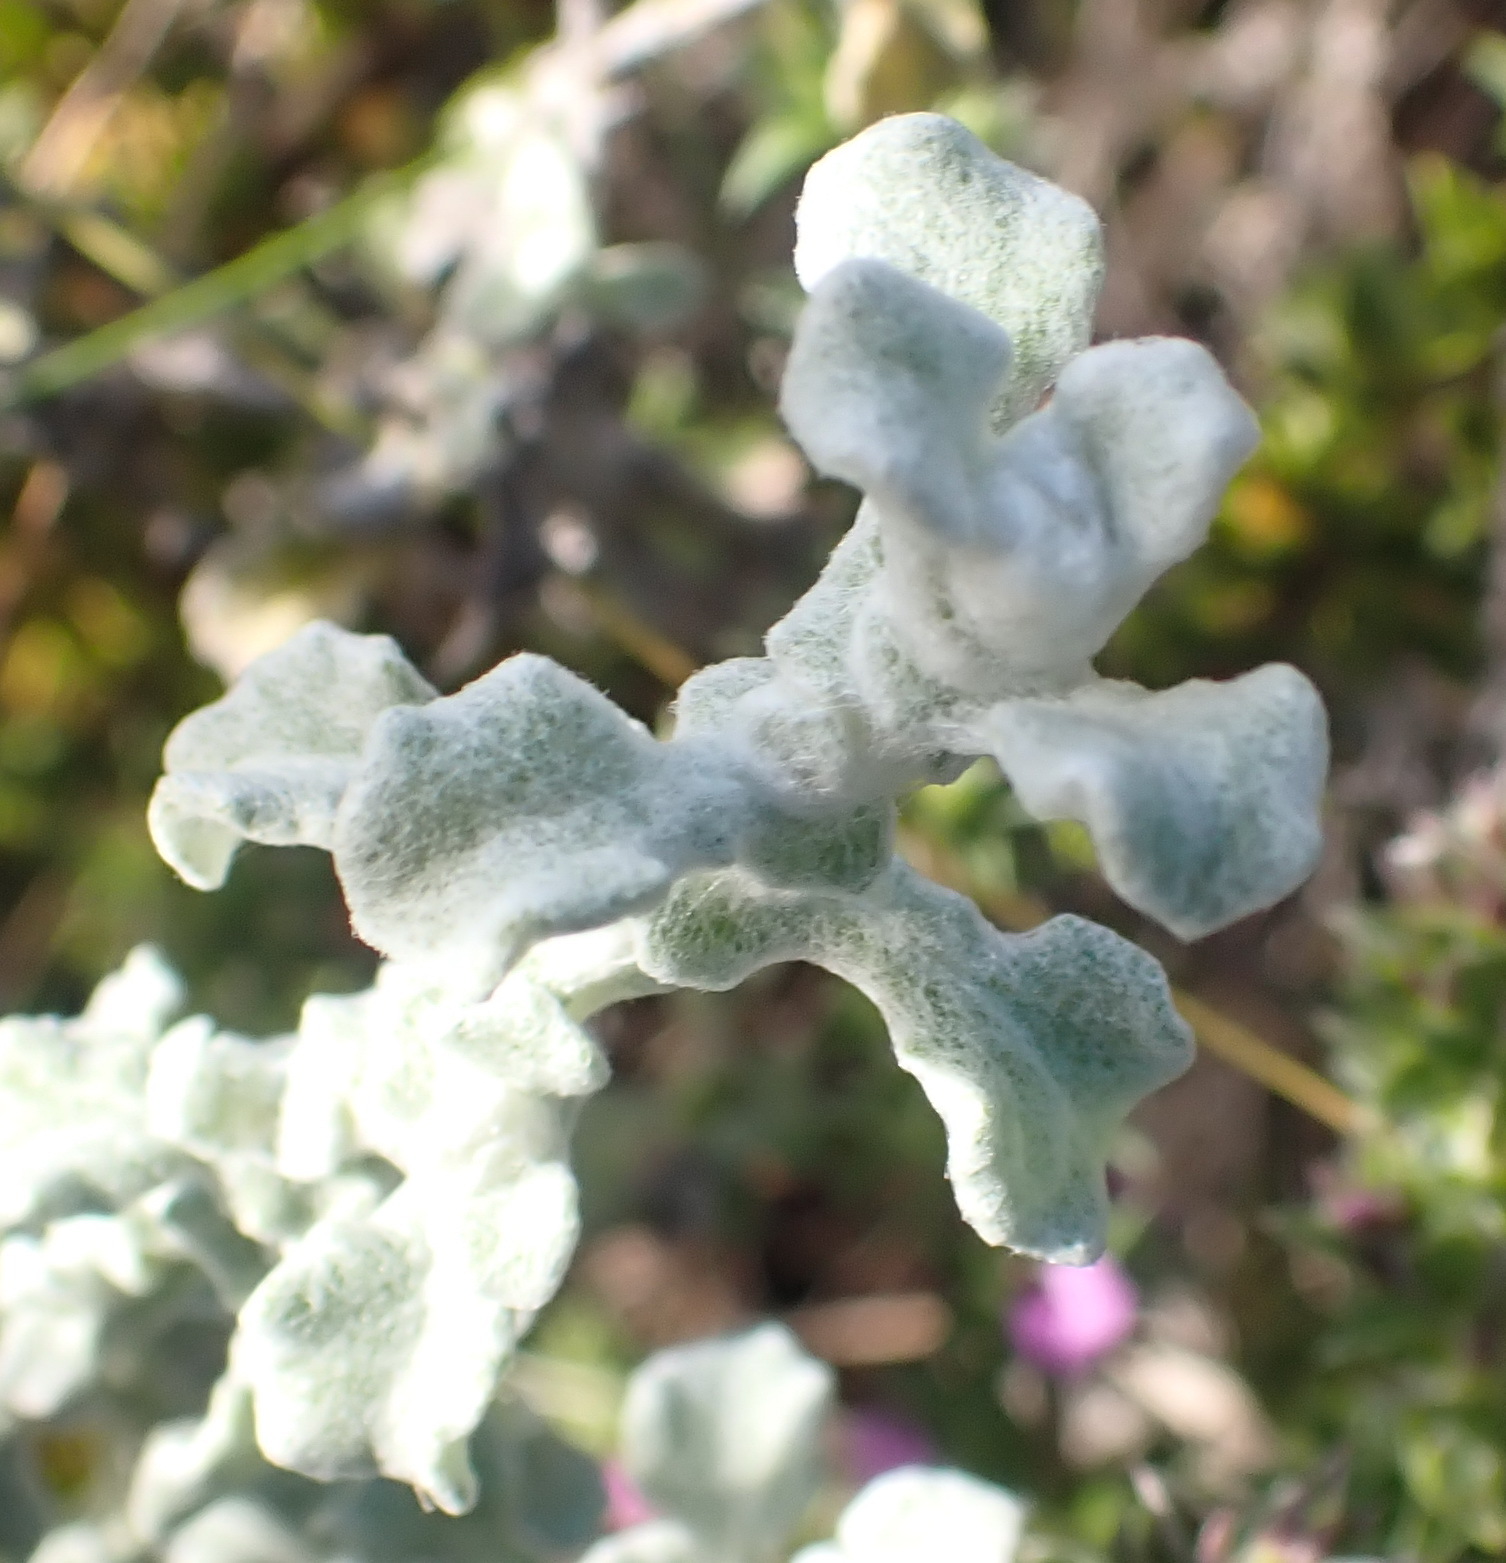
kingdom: Plantae
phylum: Tracheophyta
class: Magnoliopsida
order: Asterales
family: Asteraceae
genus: Helichrysum
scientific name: Helichrysum patulum
